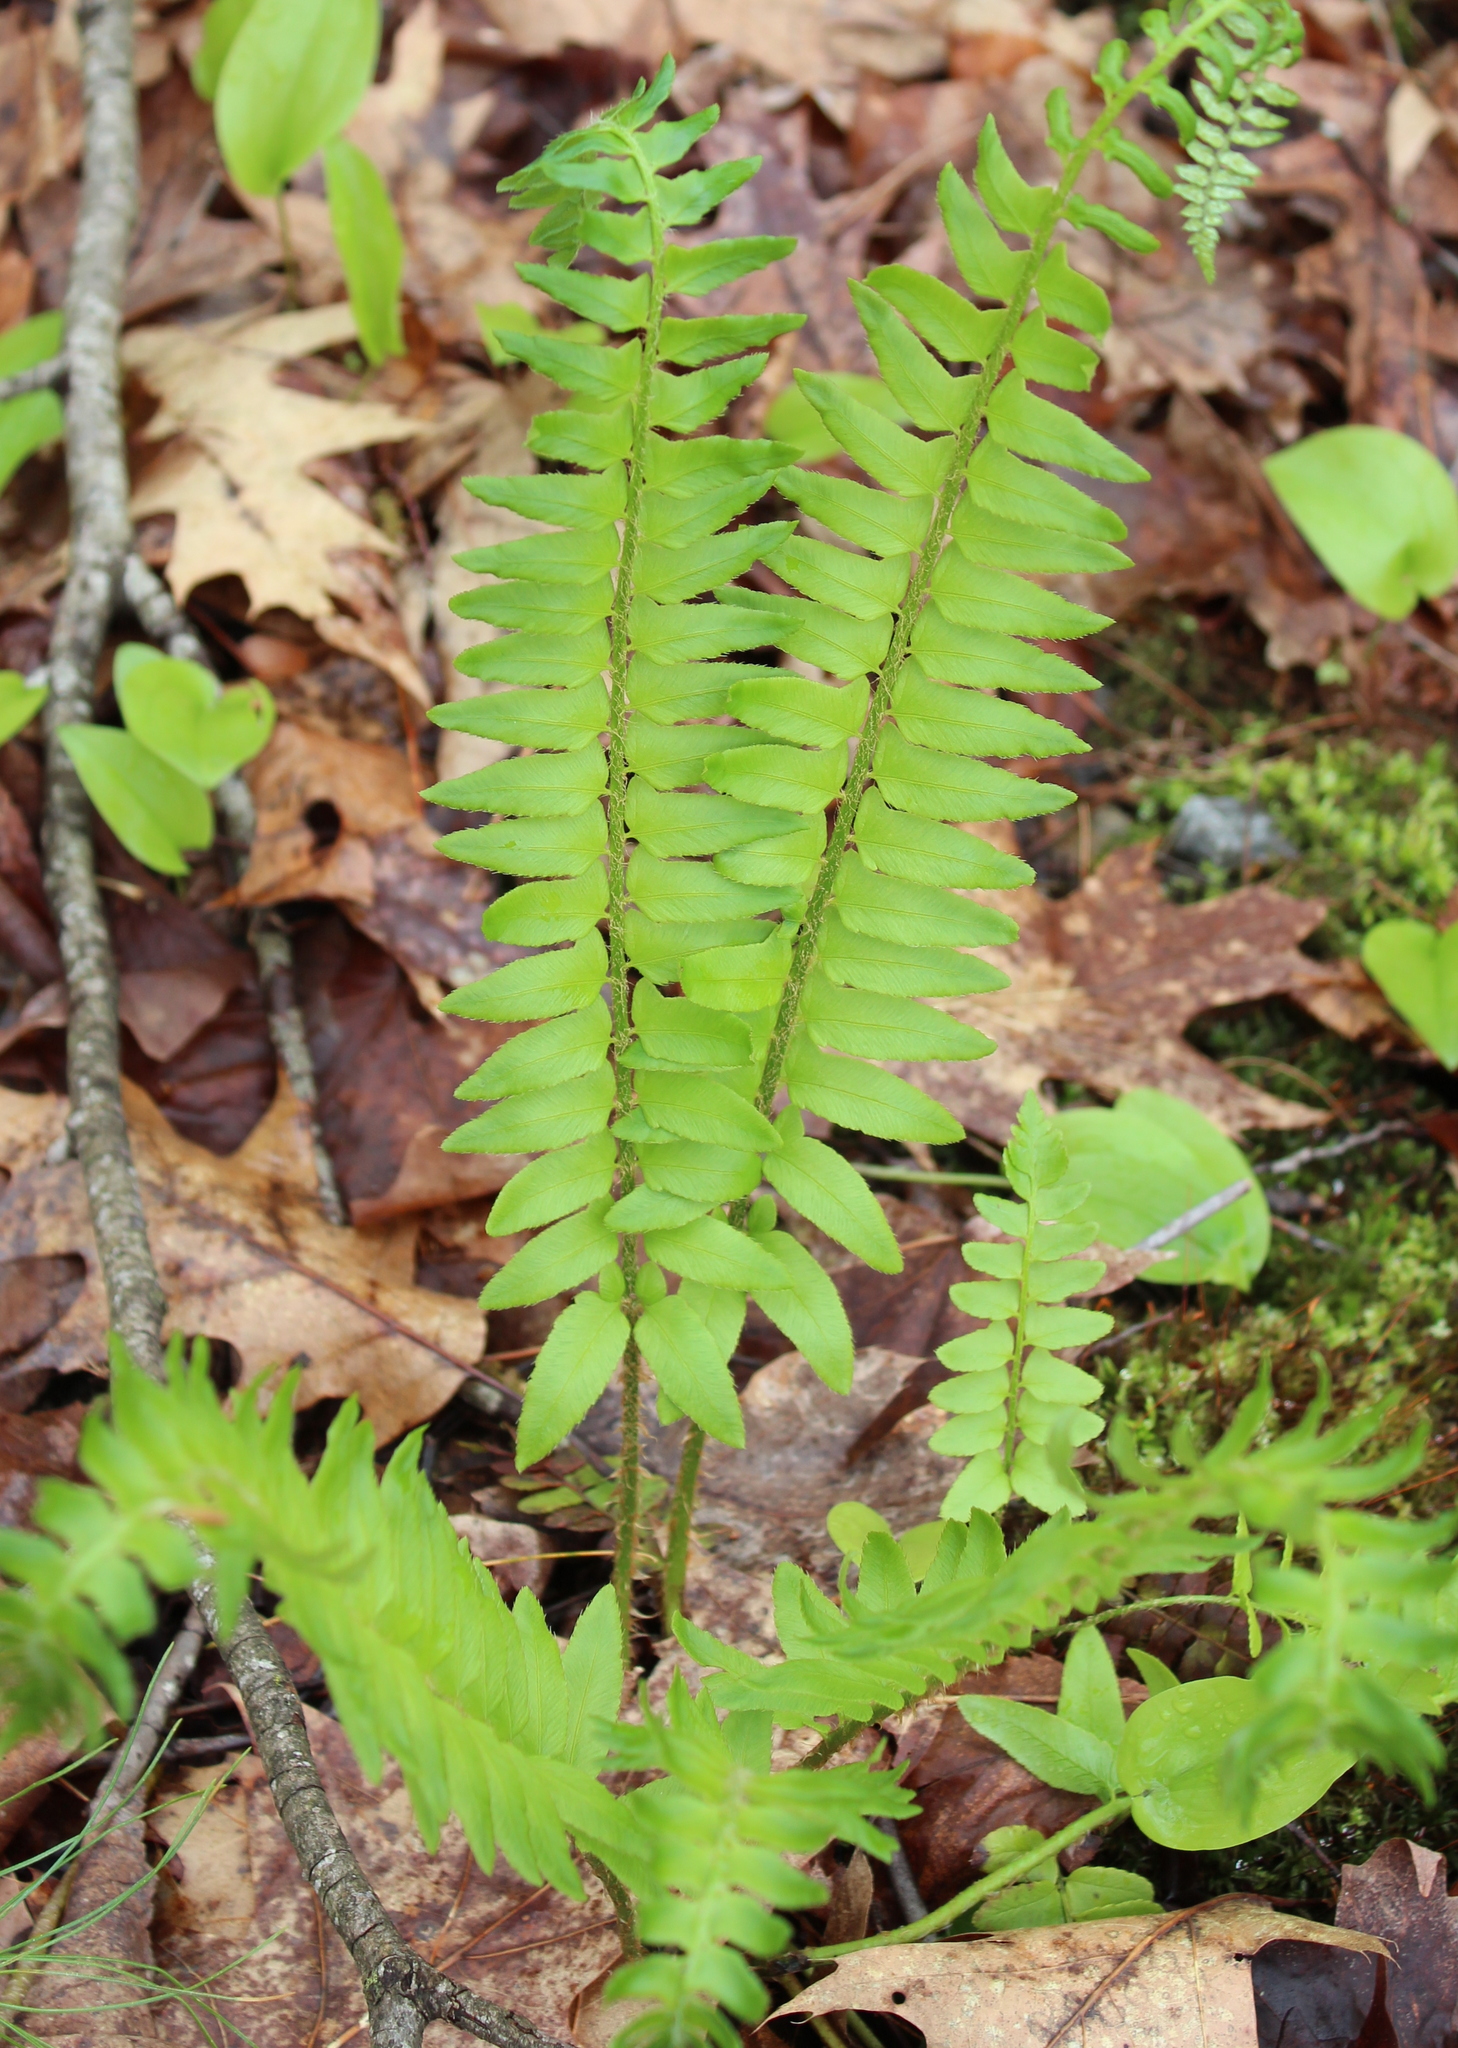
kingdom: Plantae
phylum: Tracheophyta
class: Polypodiopsida
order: Polypodiales
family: Dryopteridaceae
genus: Polystichum
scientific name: Polystichum acrostichoides
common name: Christmas fern
